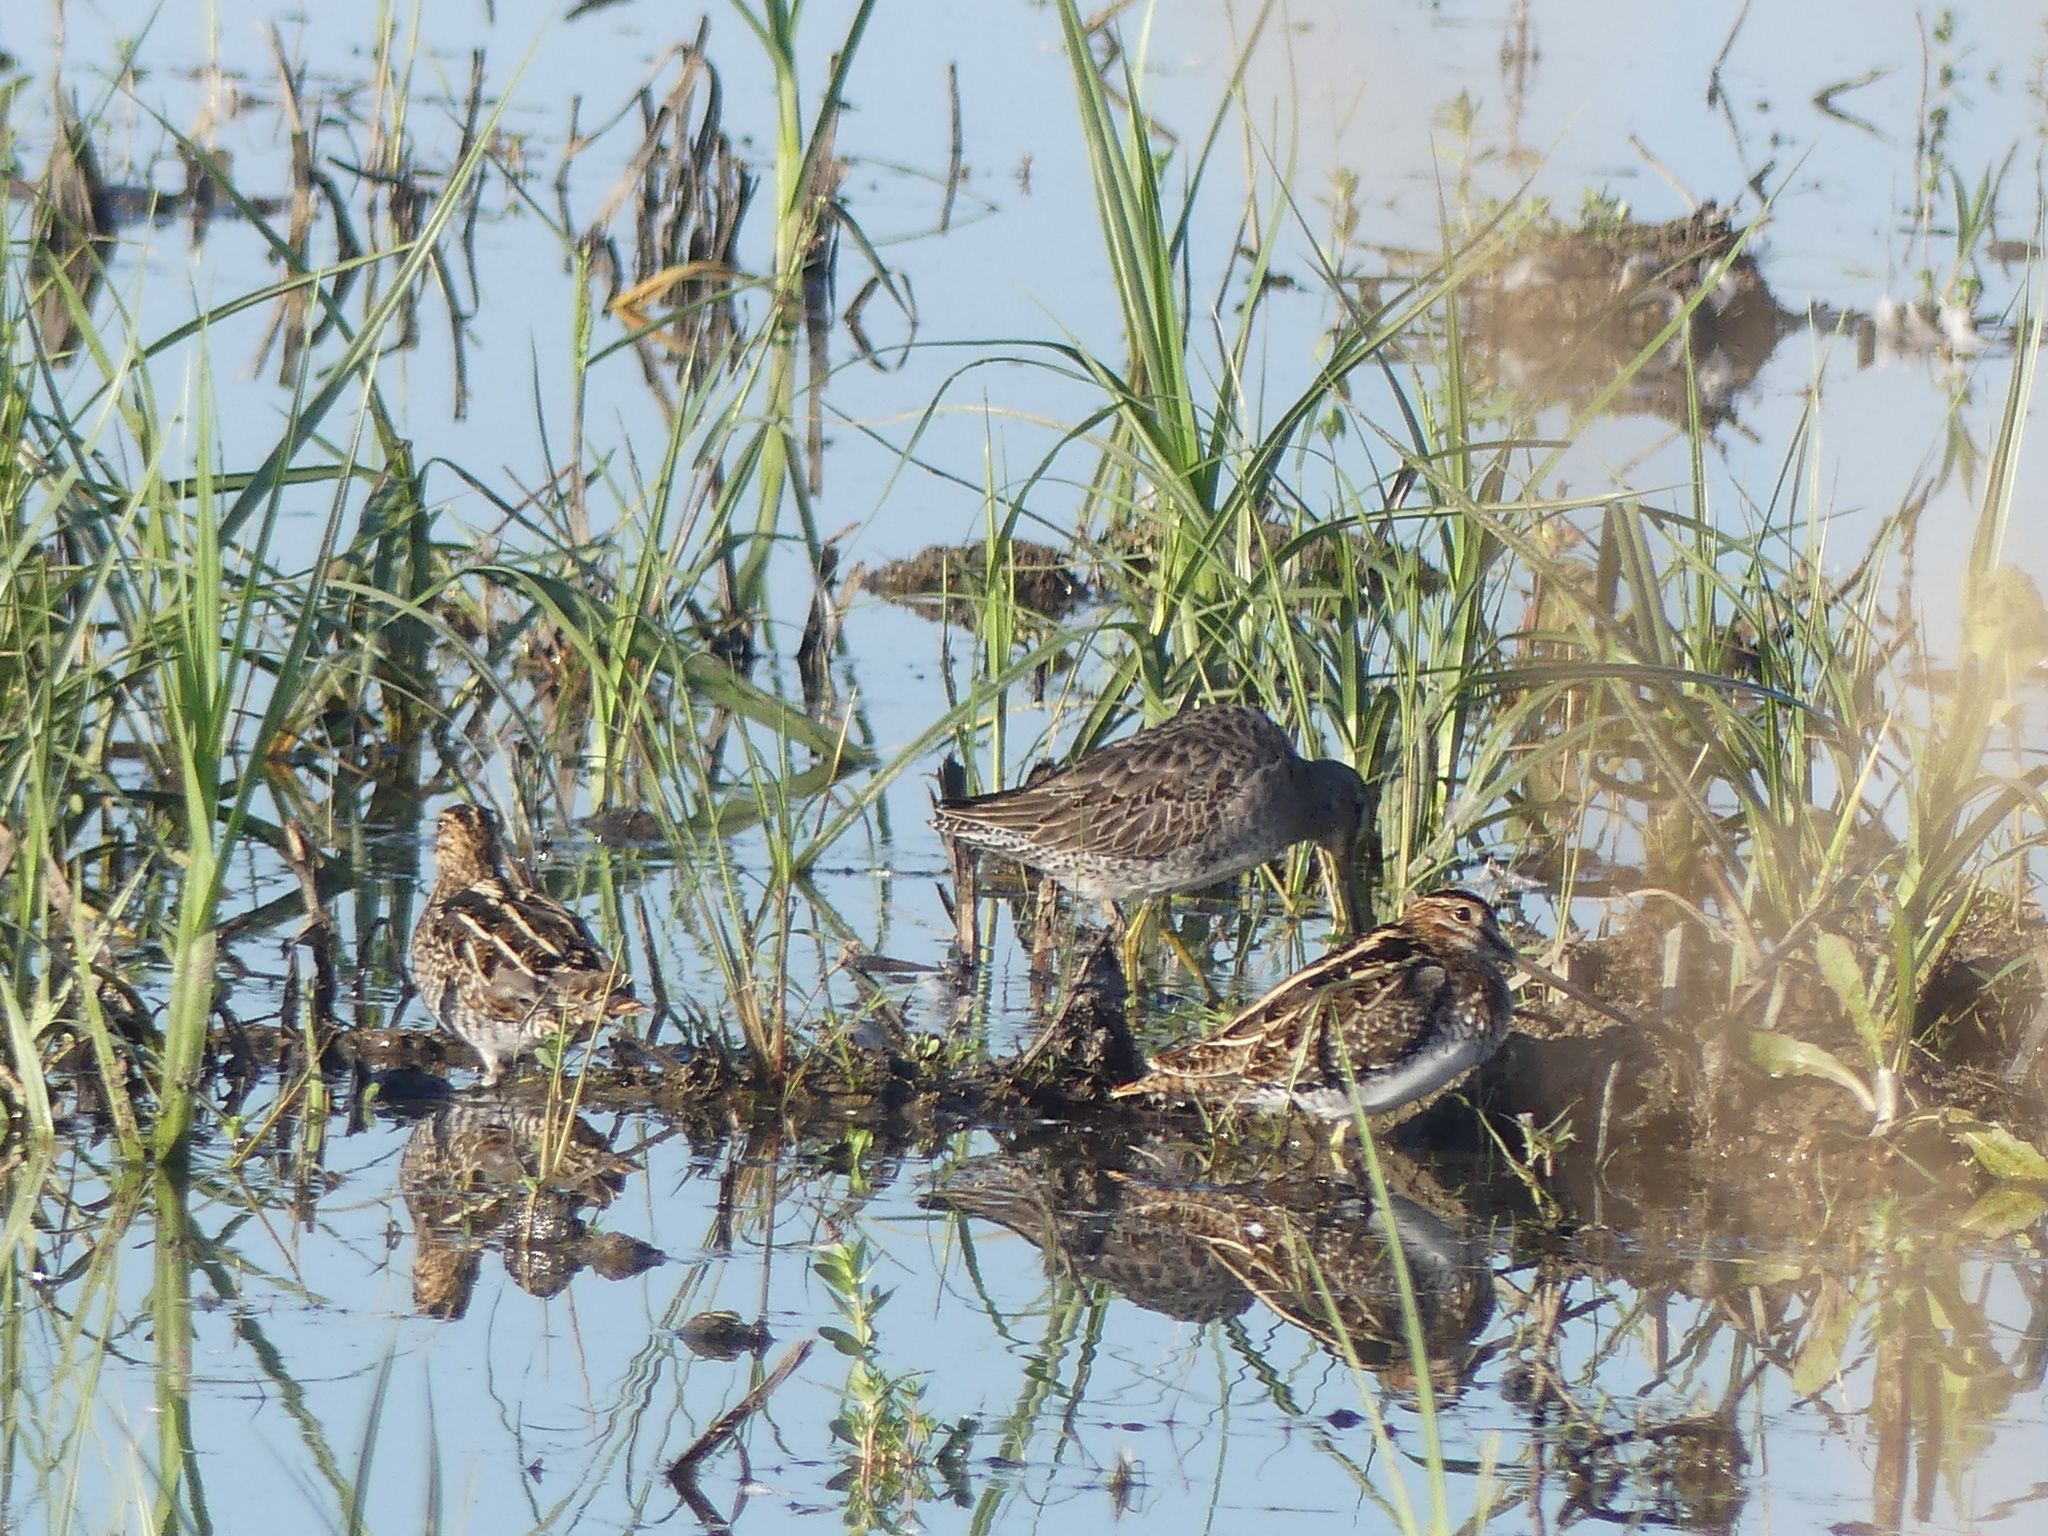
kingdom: Animalia
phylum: Chordata
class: Aves
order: Charadriiformes
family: Scolopacidae
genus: Gallinago
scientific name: Gallinago delicata
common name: Wilson's snipe
